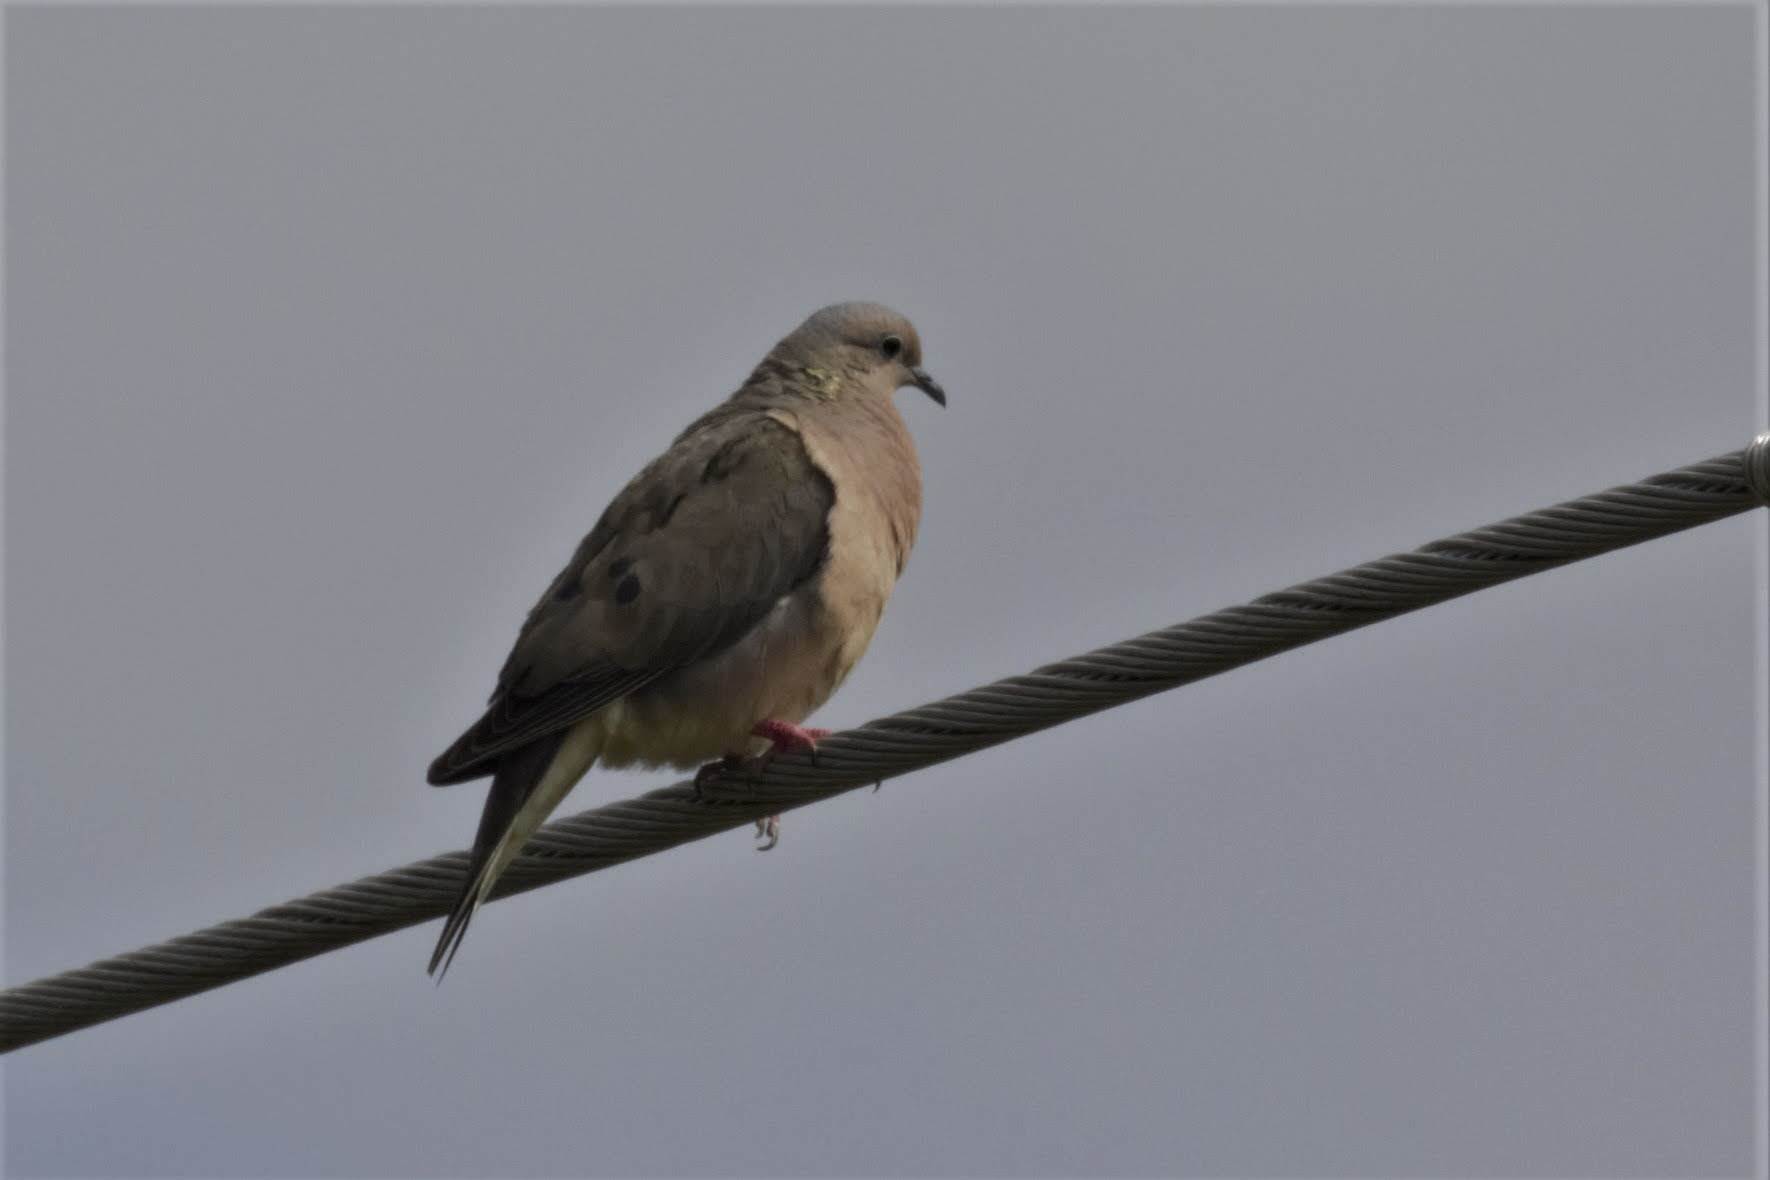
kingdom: Animalia
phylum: Chordata
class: Aves
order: Columbiformes
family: Columbidae
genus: Zenaida
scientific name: Zenaida auriculata
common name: Eared dove
